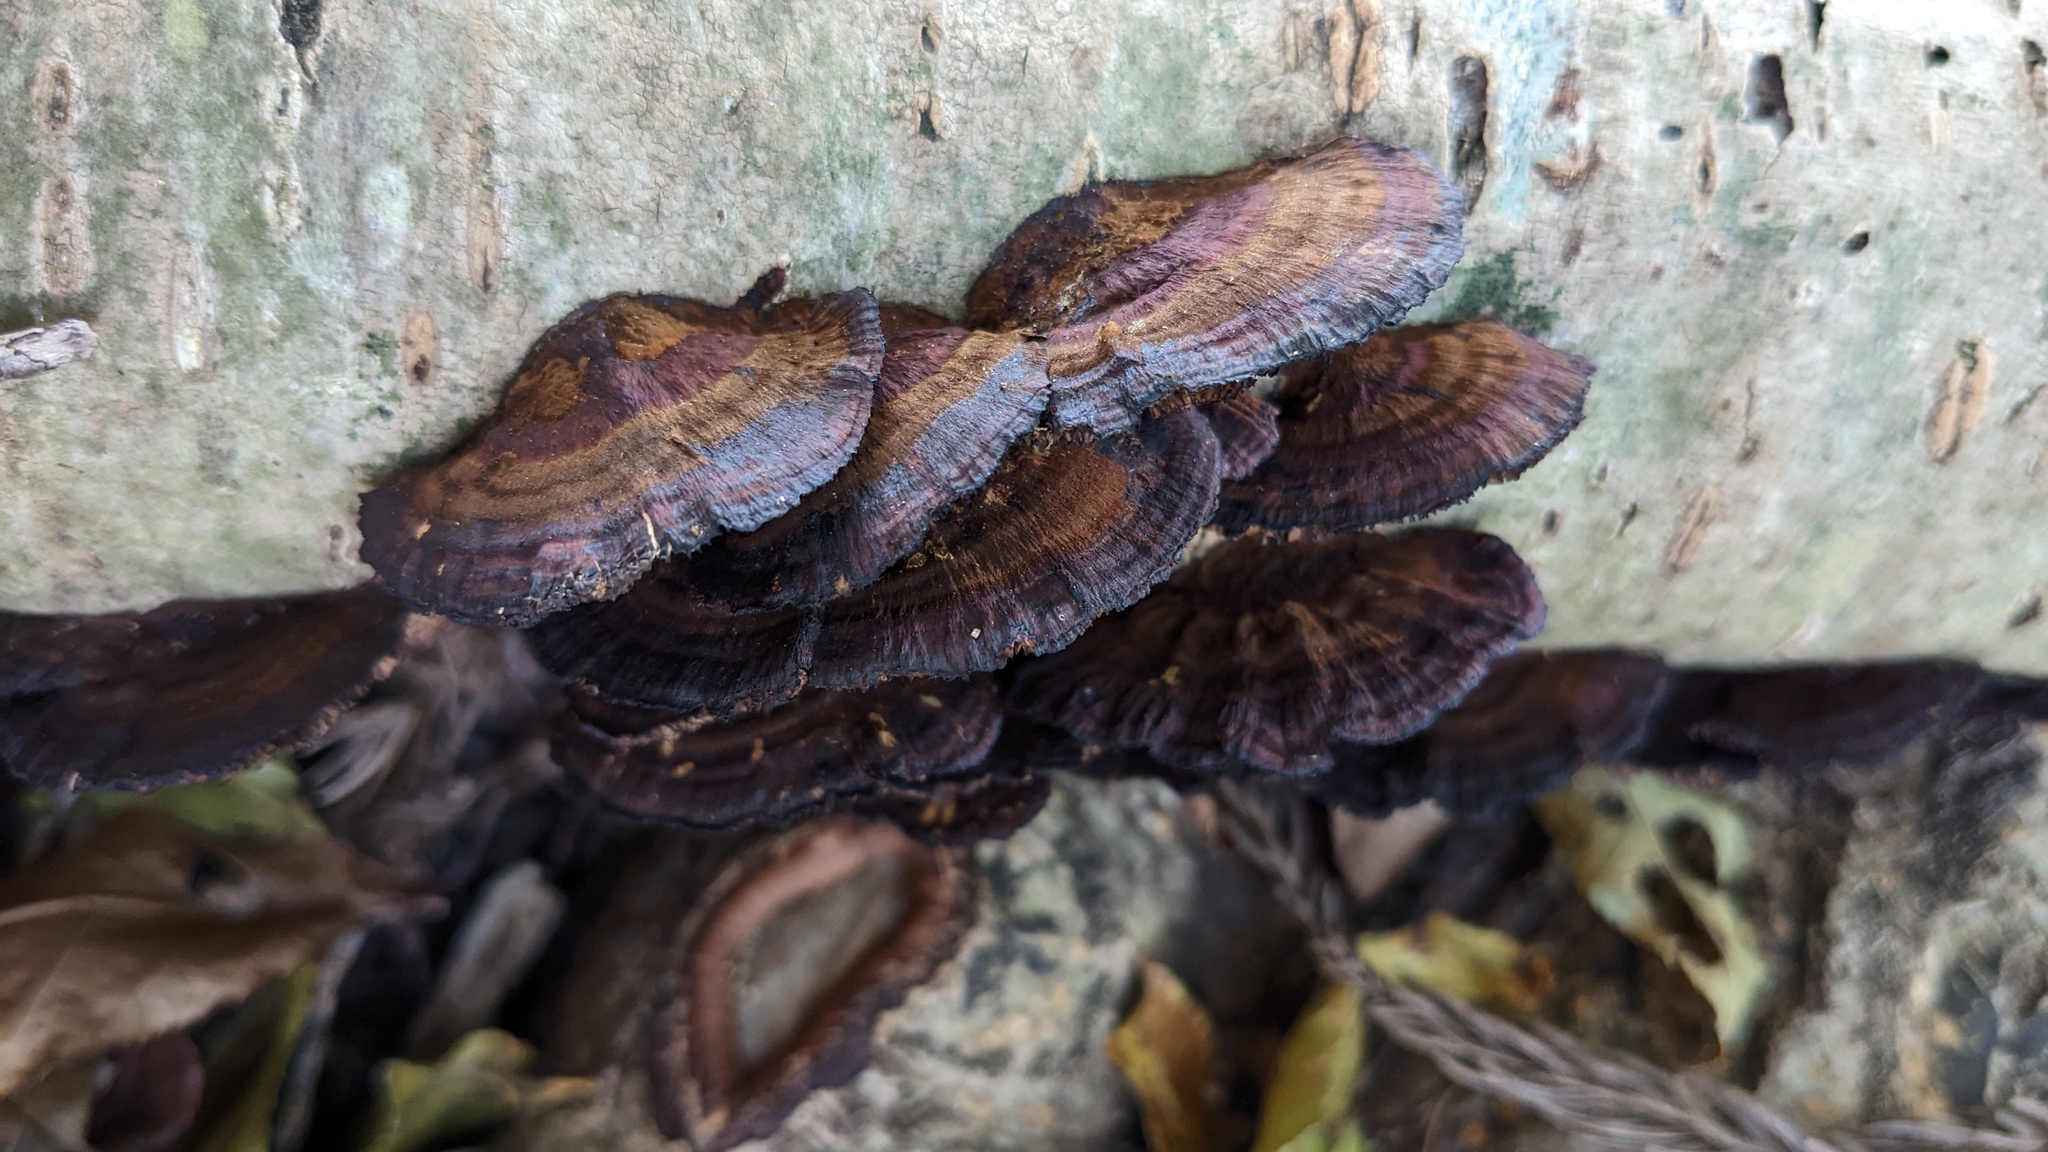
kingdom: Fungi
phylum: Basidiomycota
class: Agaricomycetes
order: Polyporales
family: Polyporaceae
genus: Daedaleopsis
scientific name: Daedaleopsis tricolor
